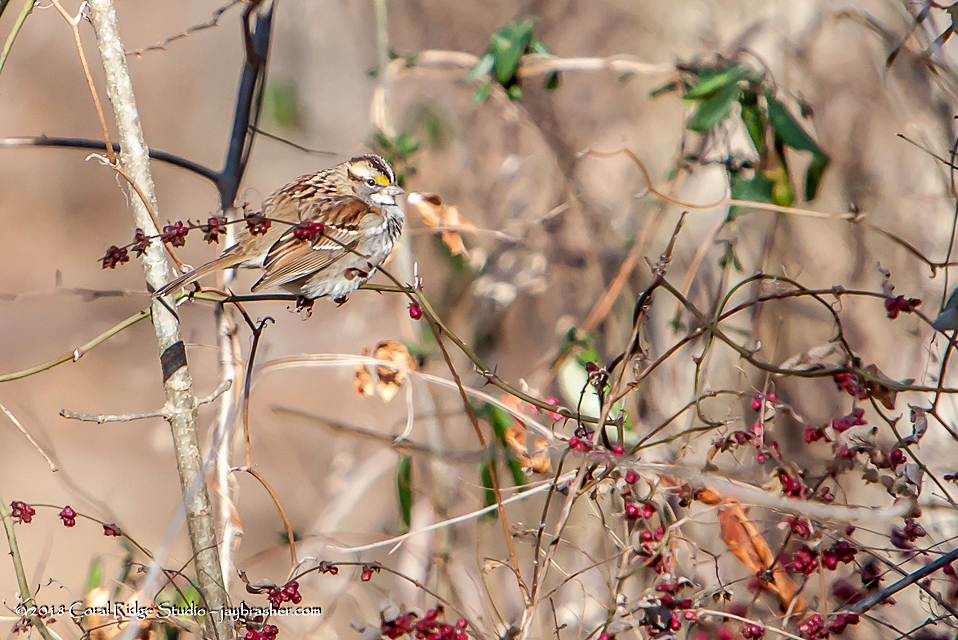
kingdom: Animalia
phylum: Chordata
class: Aves
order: Passeriformes
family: Passerellidae
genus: Zonotrichia
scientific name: Zonotrichia albicollis
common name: White-throated sparrow
